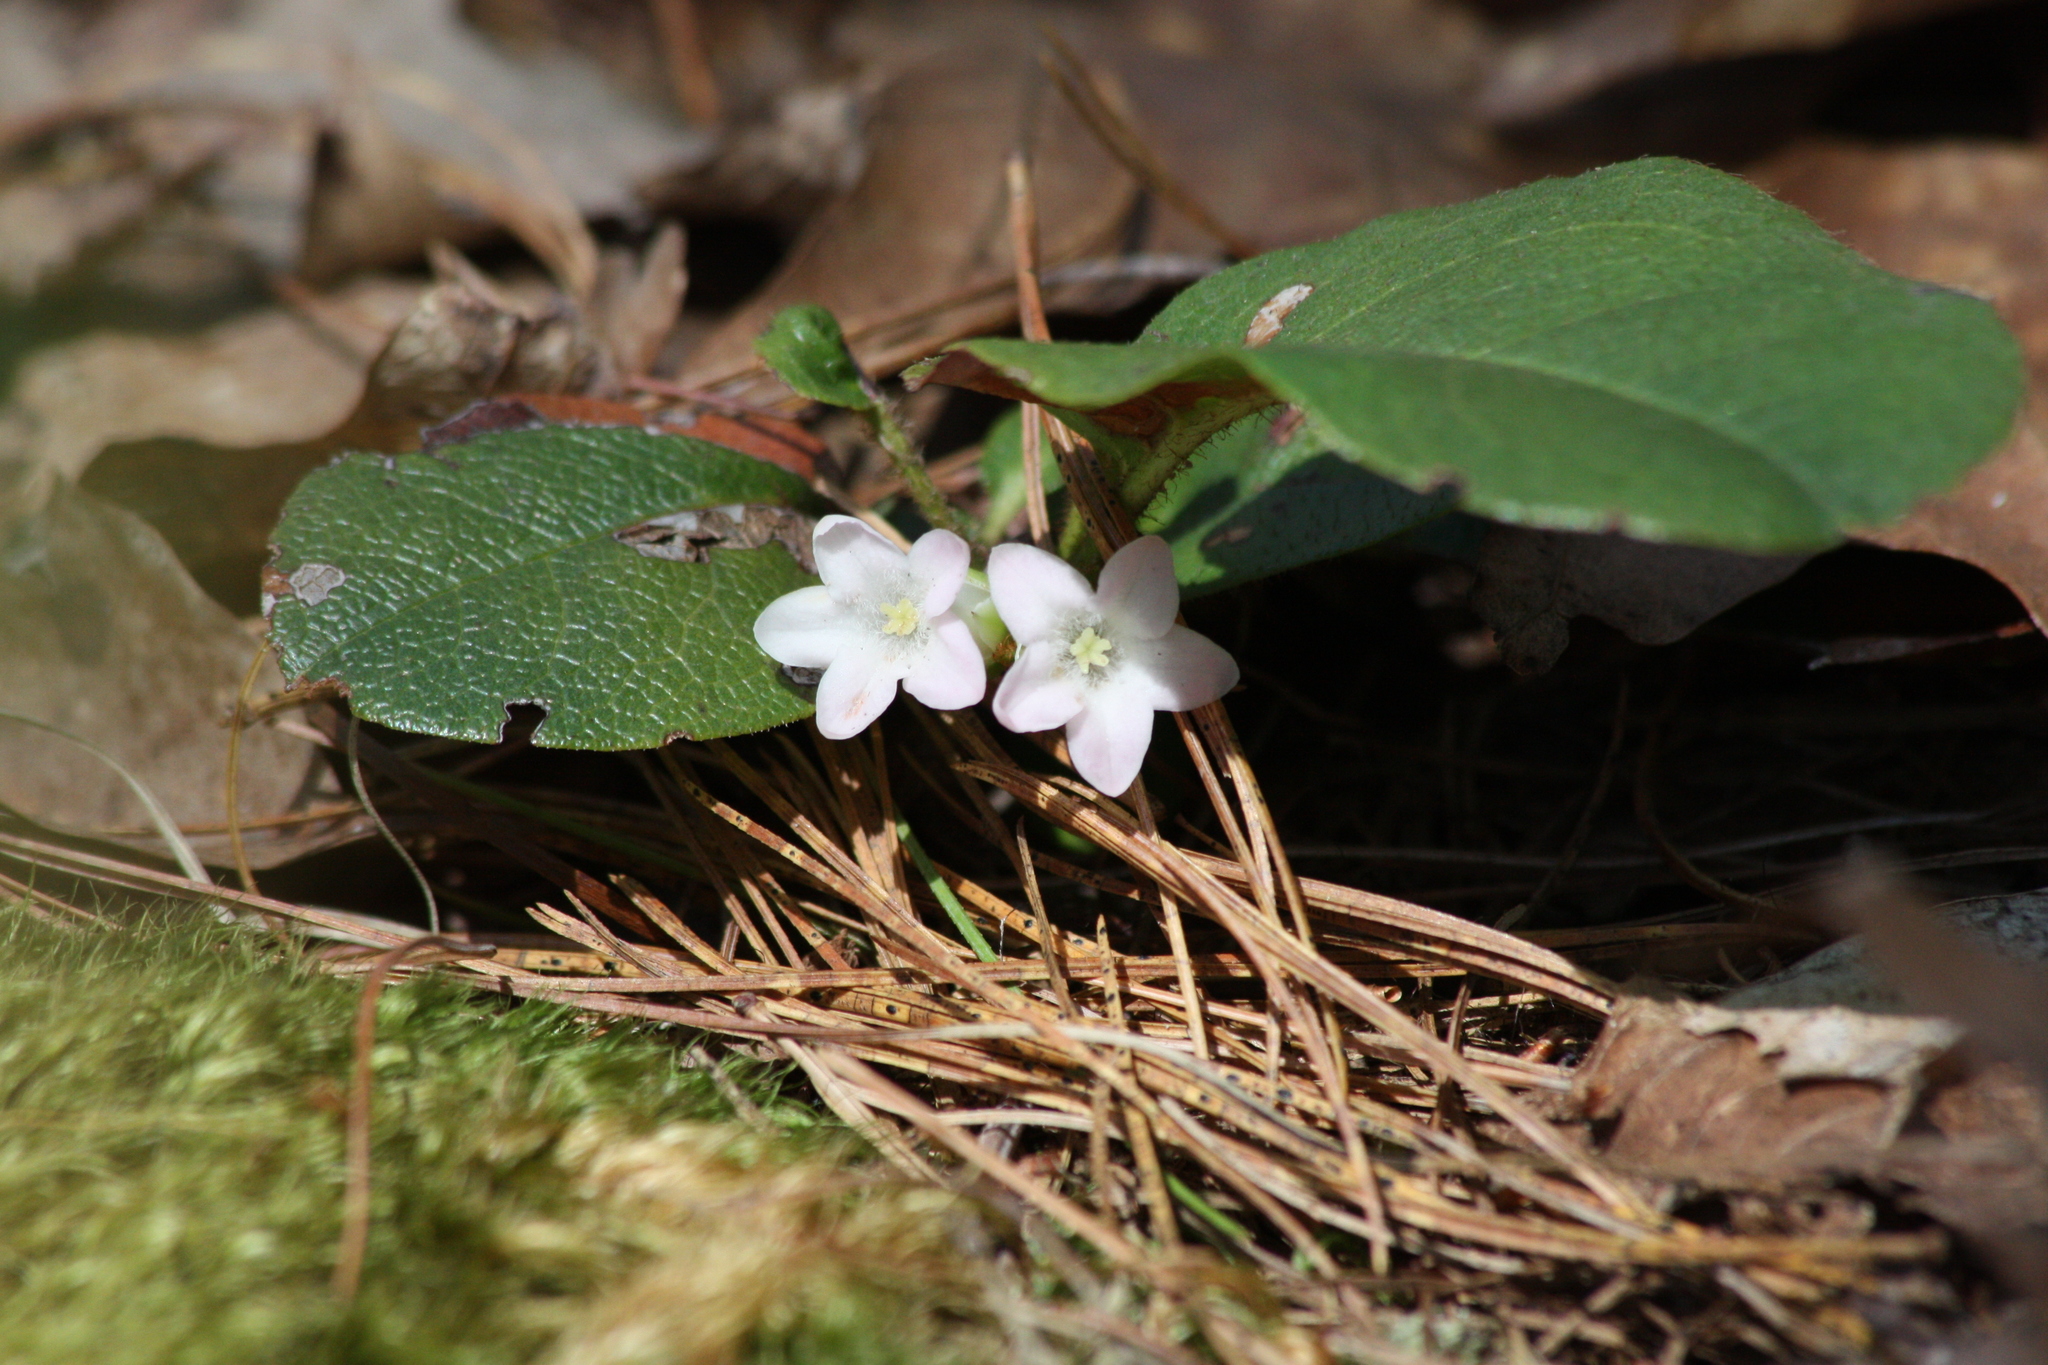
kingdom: Plantae
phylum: Tracheophyta
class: Magnoliopsida
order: Ericales
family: Ericaceae
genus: Epigaea
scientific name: Epigaea repens
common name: Gravelroot
